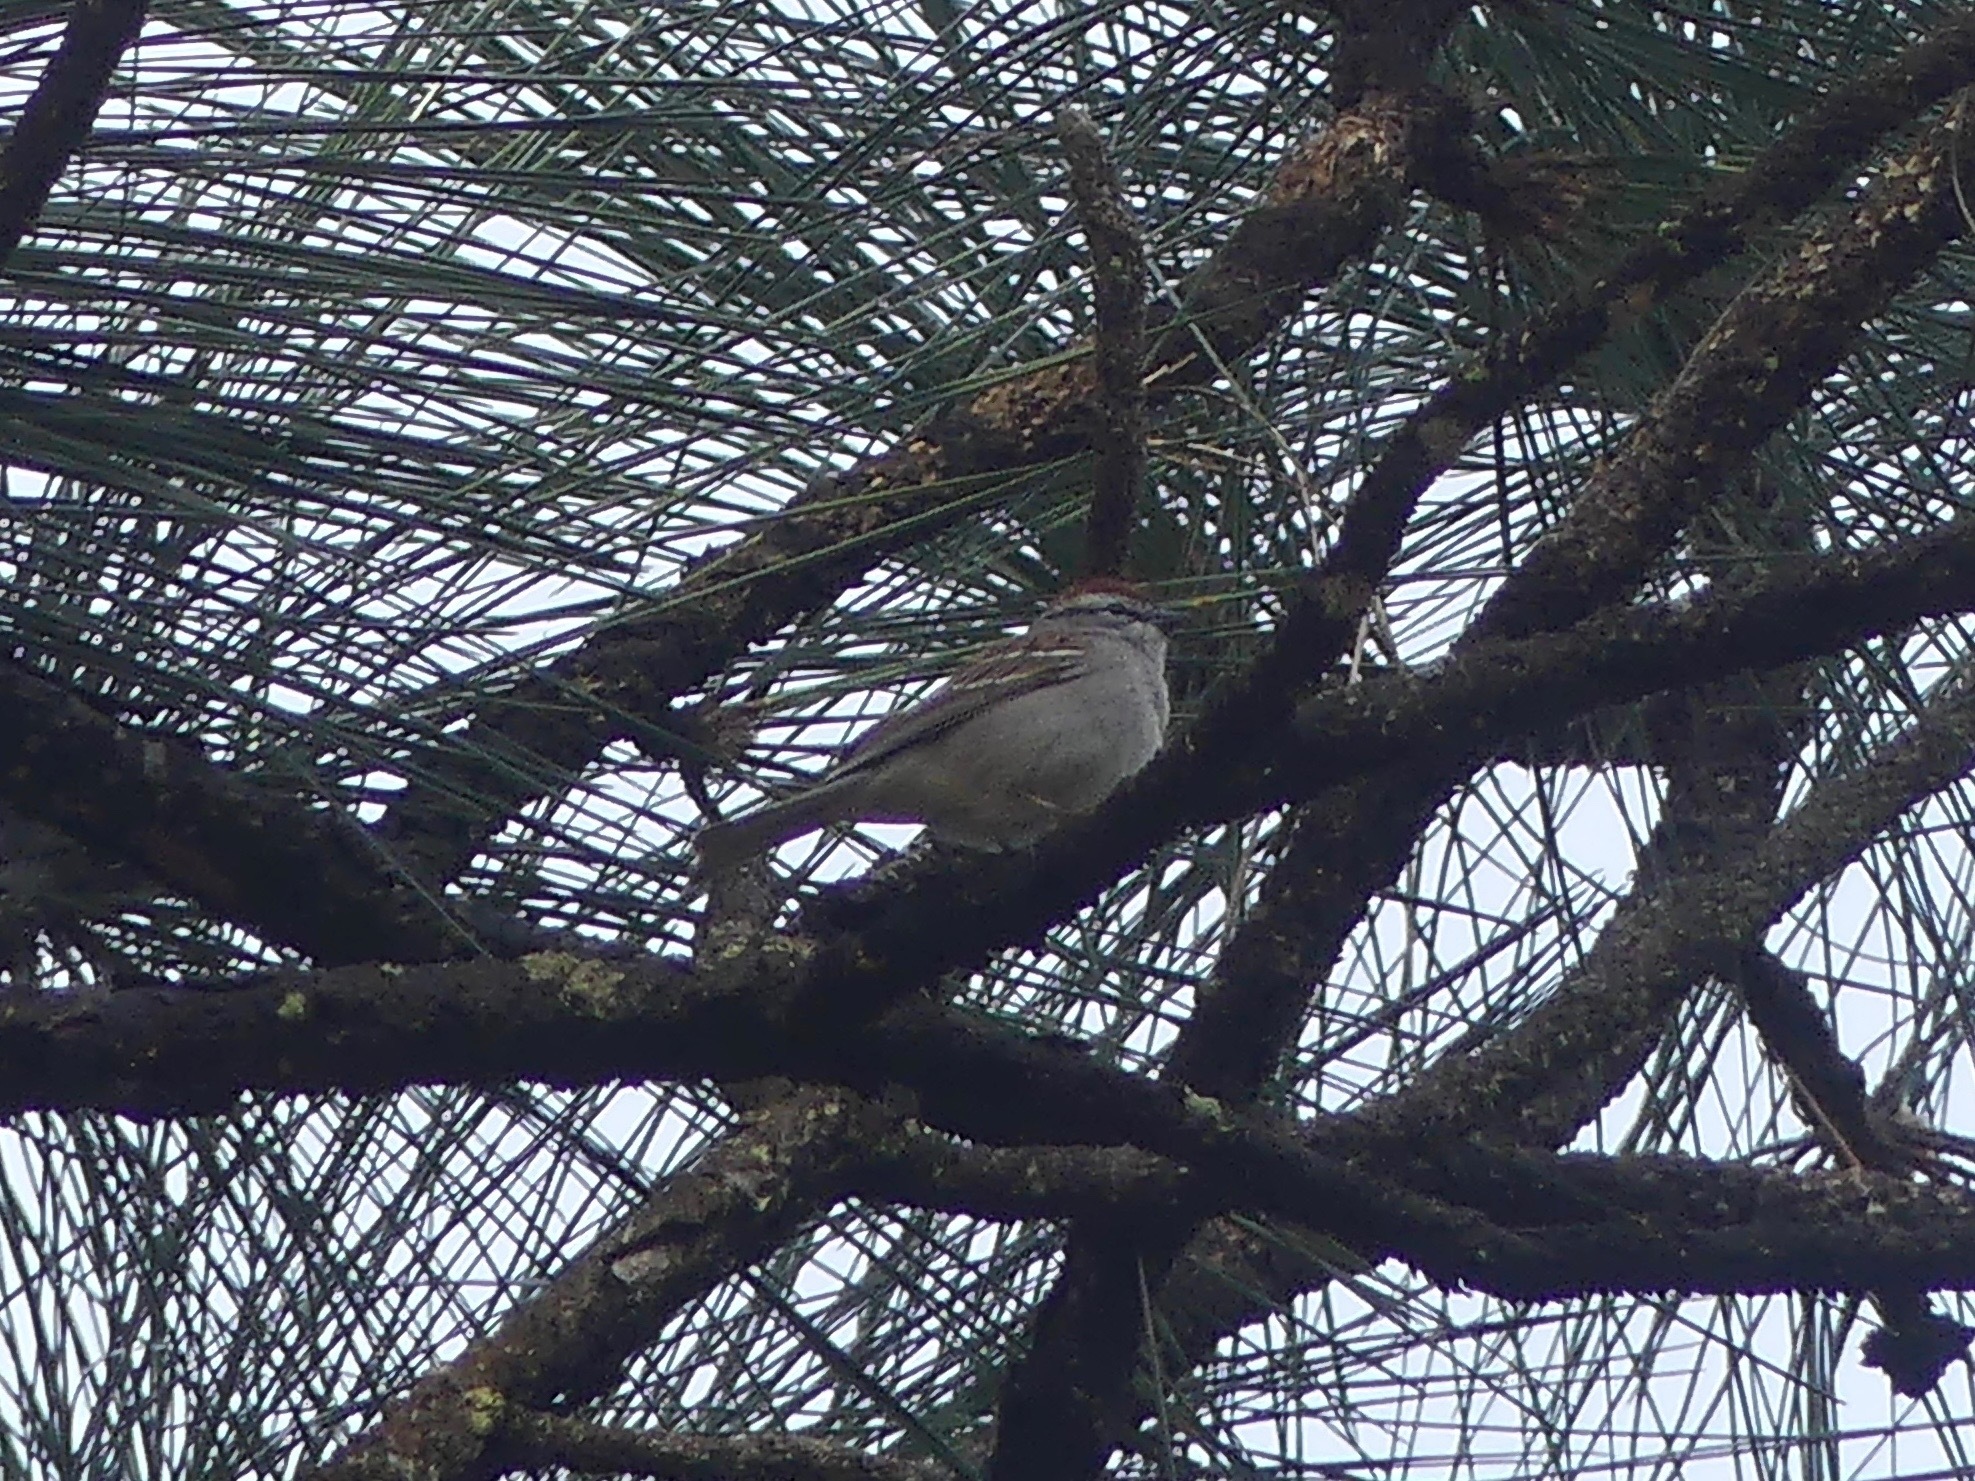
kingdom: Animalia
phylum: Chordata
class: Aves
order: Passeriformes
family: Passerellidae
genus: Spizella
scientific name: Spizella passerina
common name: Chipping sparrow
